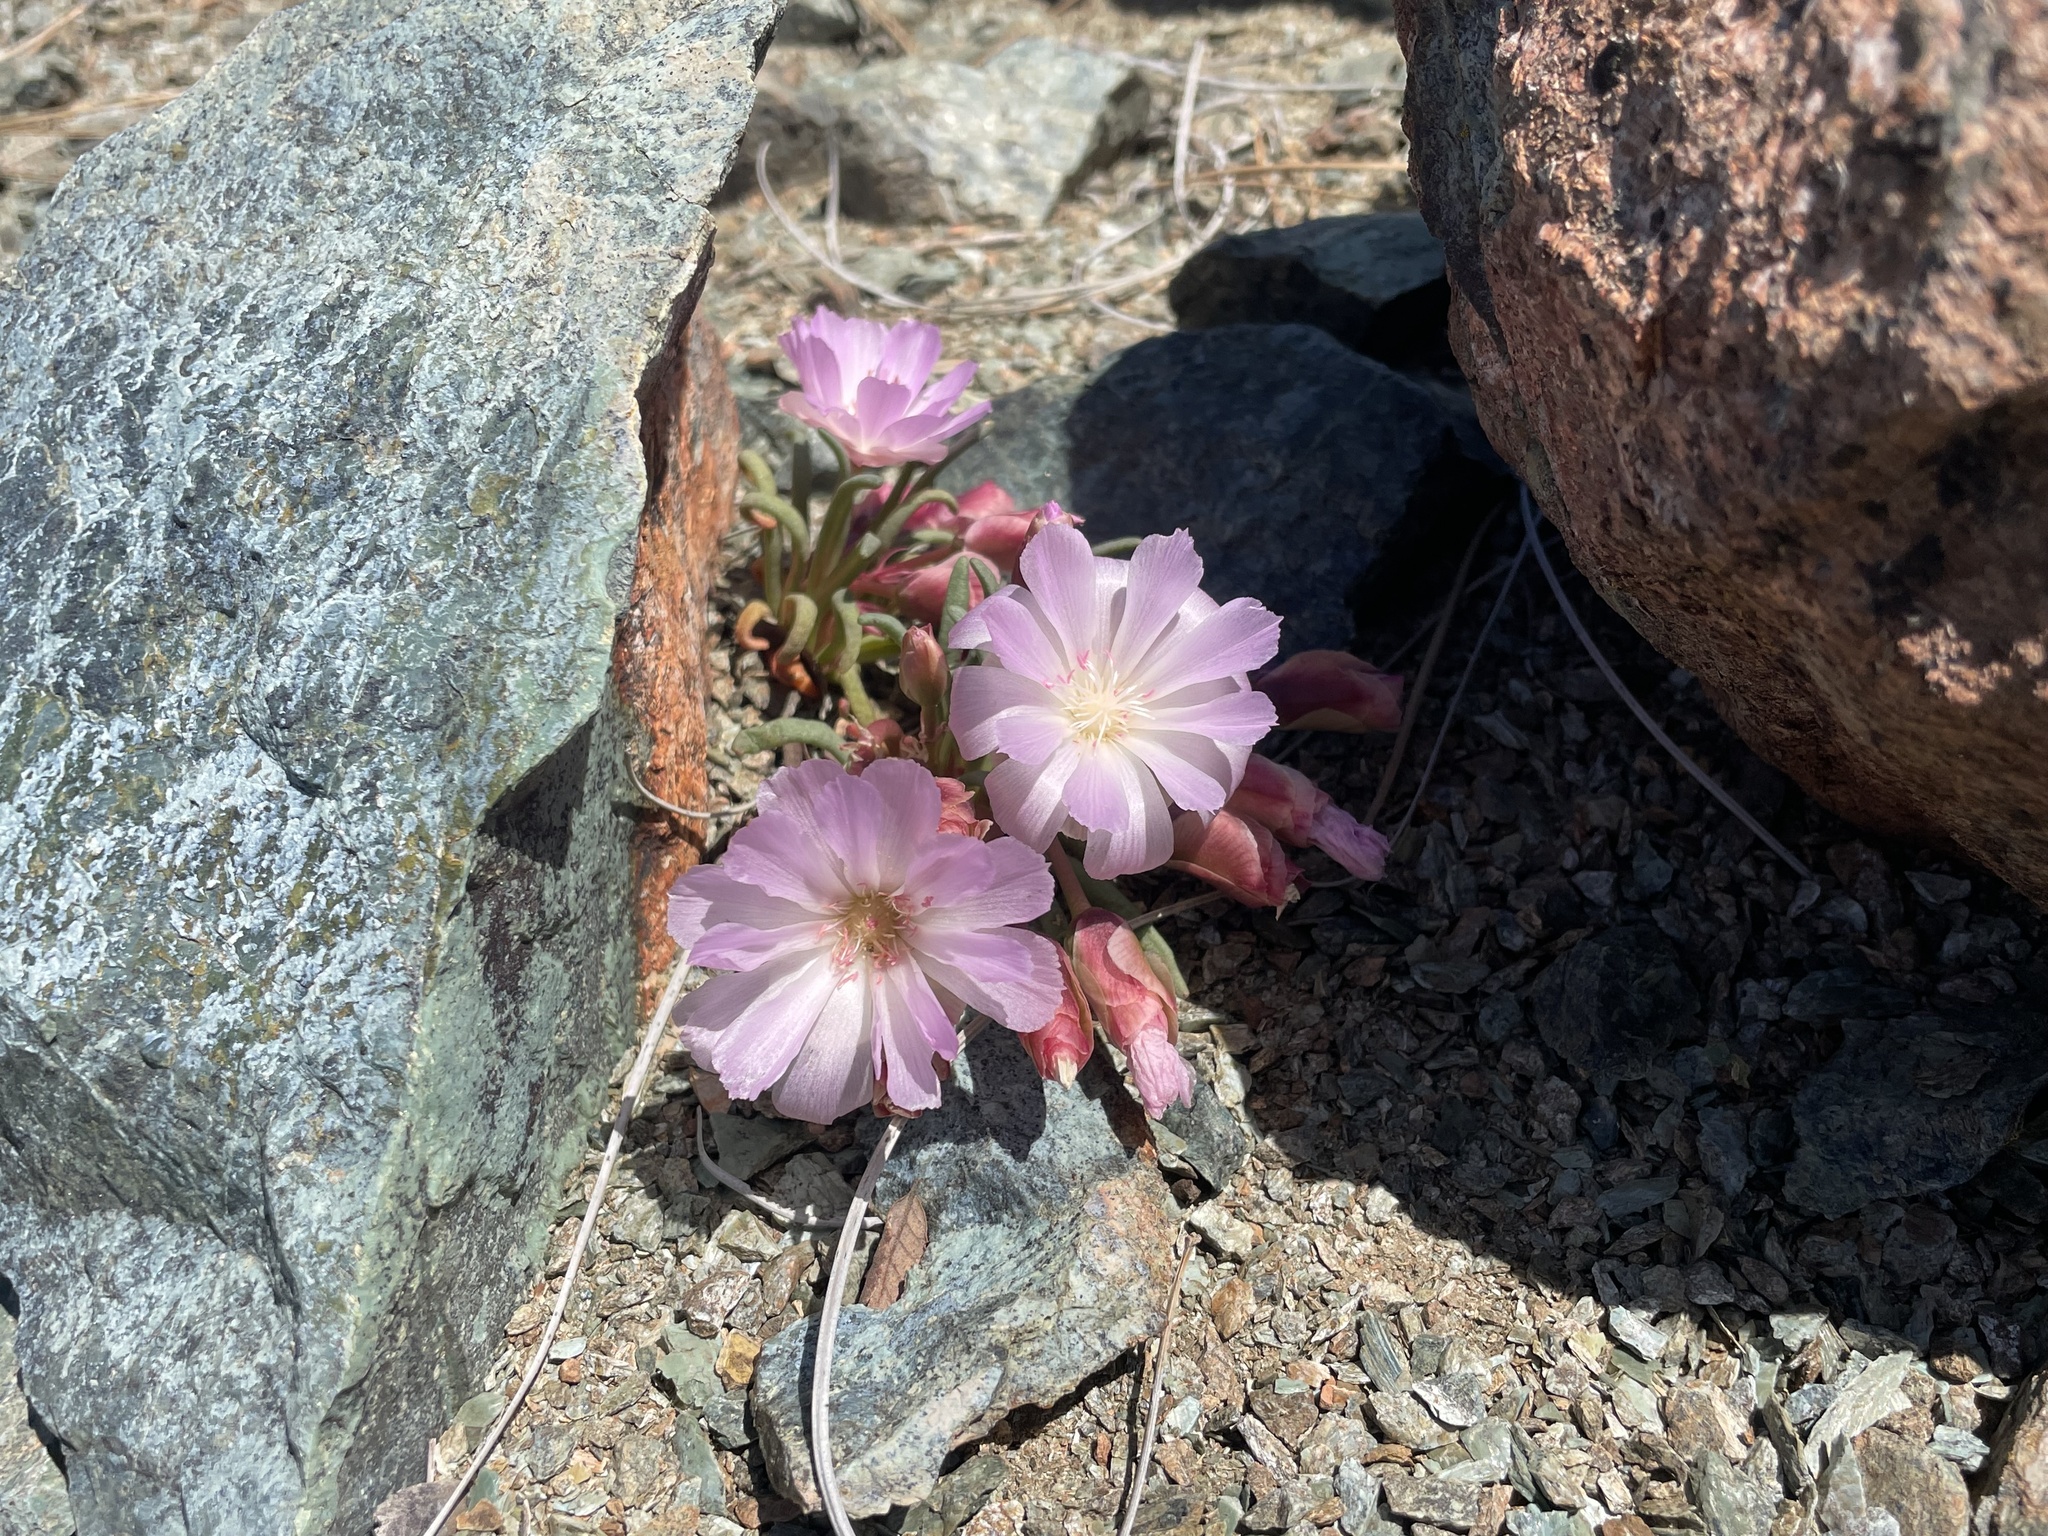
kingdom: Plantae
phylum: Tracheophyta
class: Magnoliopsida
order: Caryophyllales
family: Montiaceae
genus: Lewisia
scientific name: Lewisia rediviva
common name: Bitter-root
